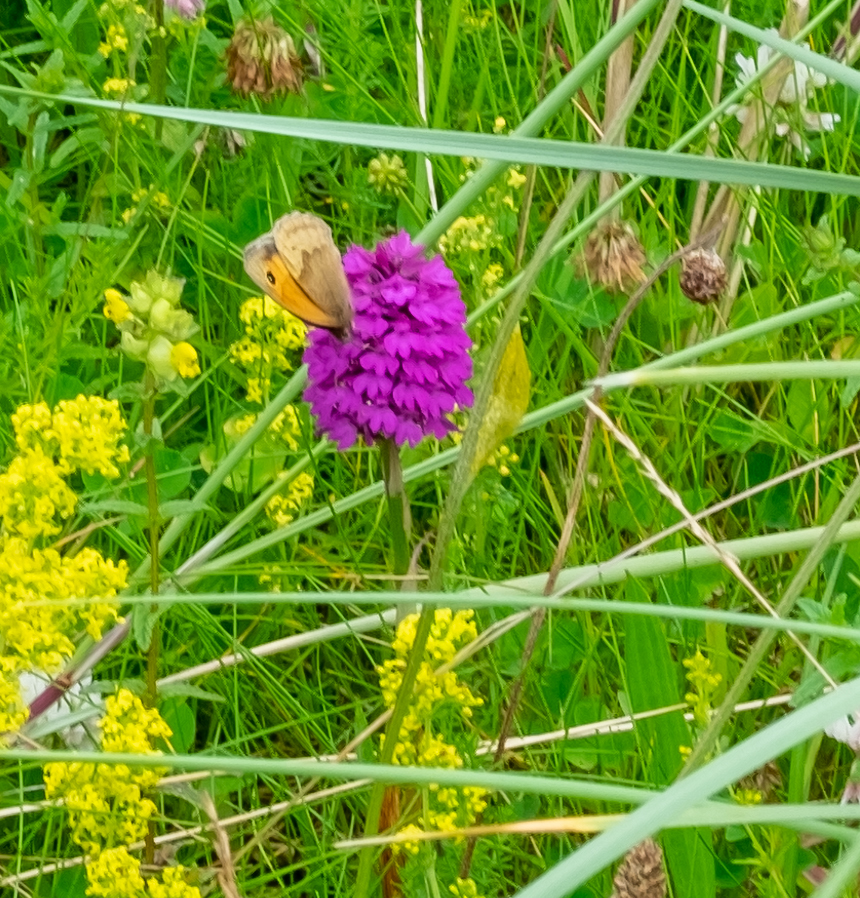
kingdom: Animalia
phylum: Arthropoda
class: Insecta
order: Lepidoptera
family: Nymphalidae
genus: Maniola
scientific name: Maniola jurtina
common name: Meadow brown
